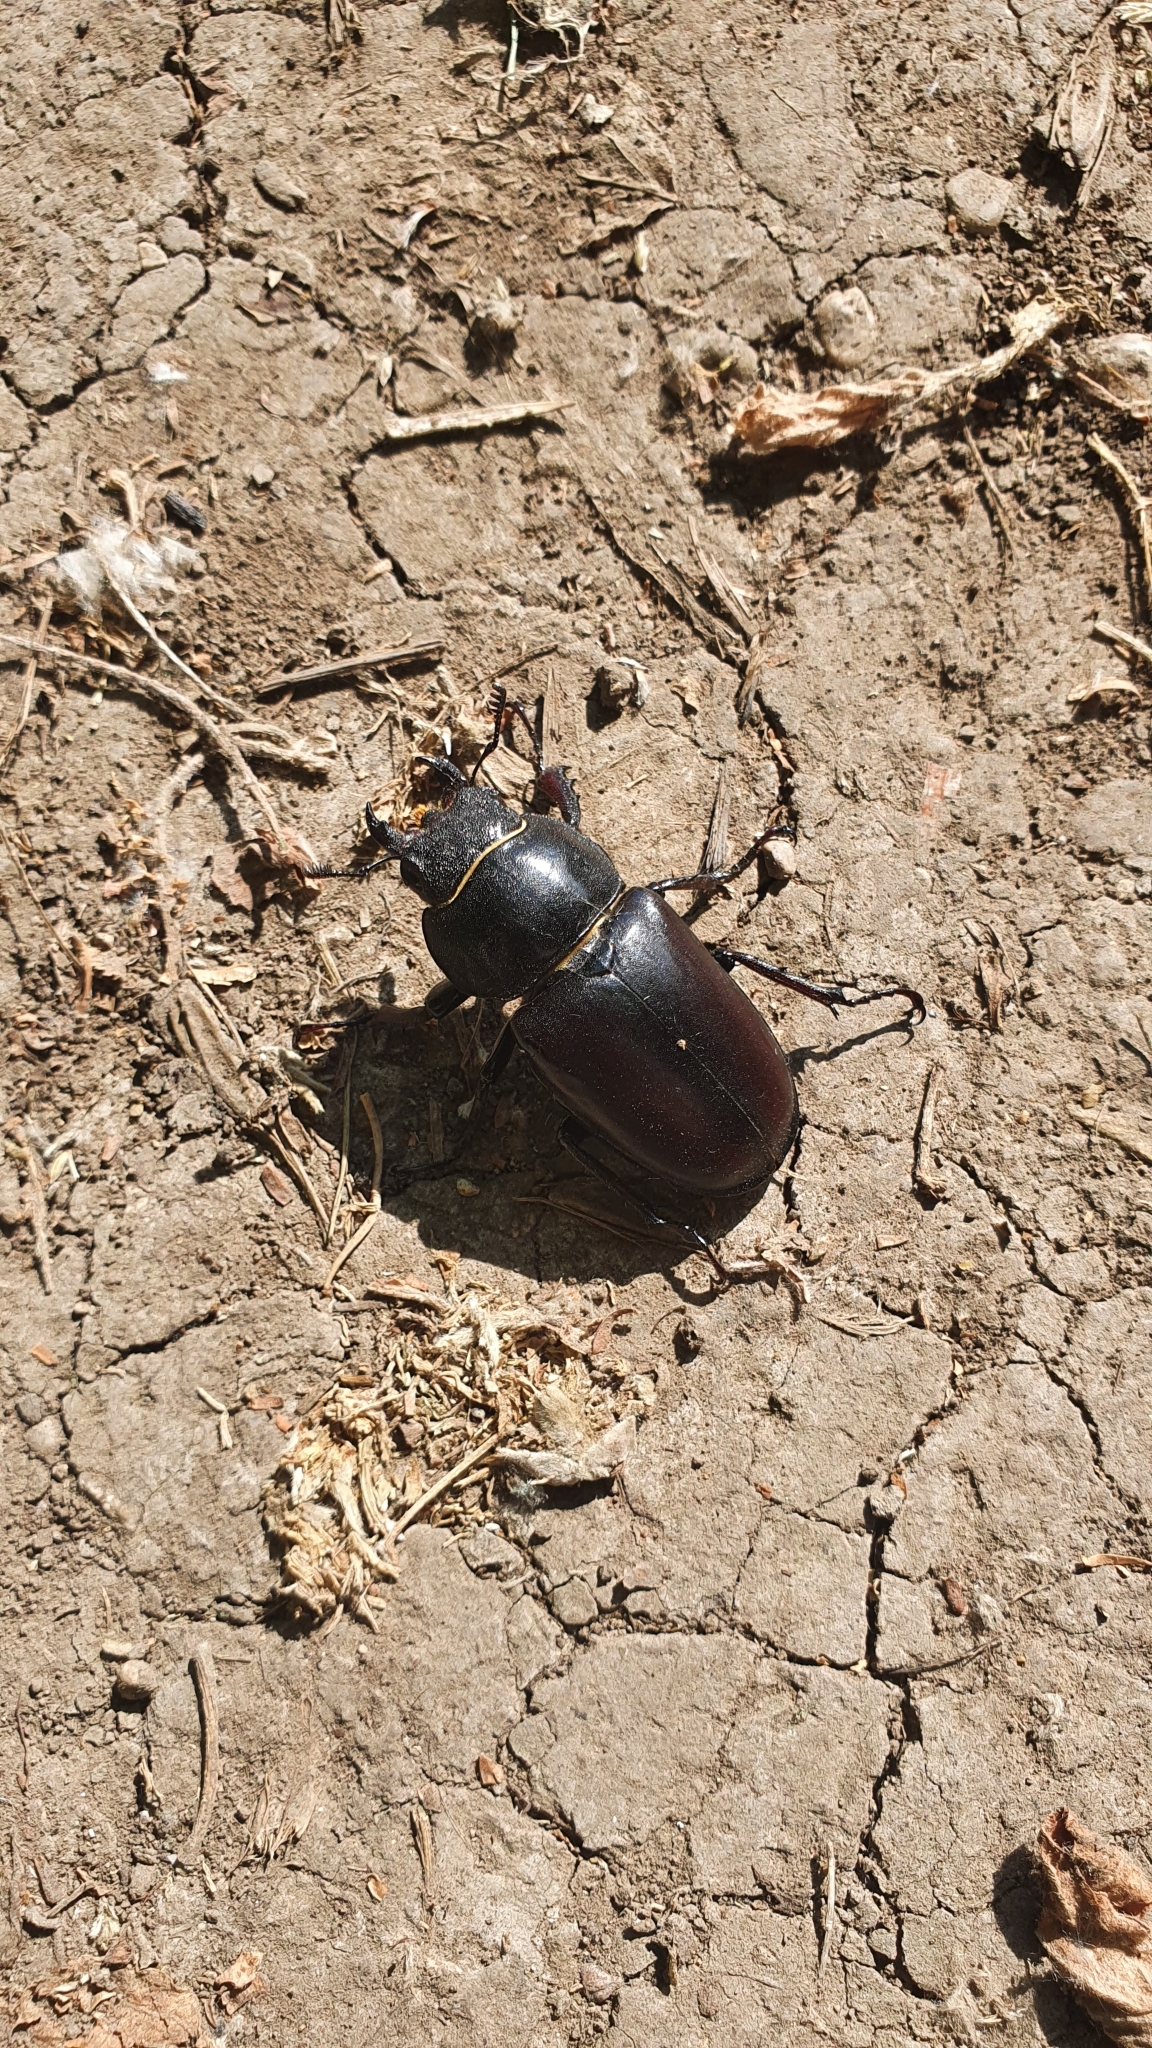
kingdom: Animalia
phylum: Arthropoda
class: Insecta
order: Coleoptera
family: Lucanidae
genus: Lucanus
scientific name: Lucanus cervus
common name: Stag beetle
